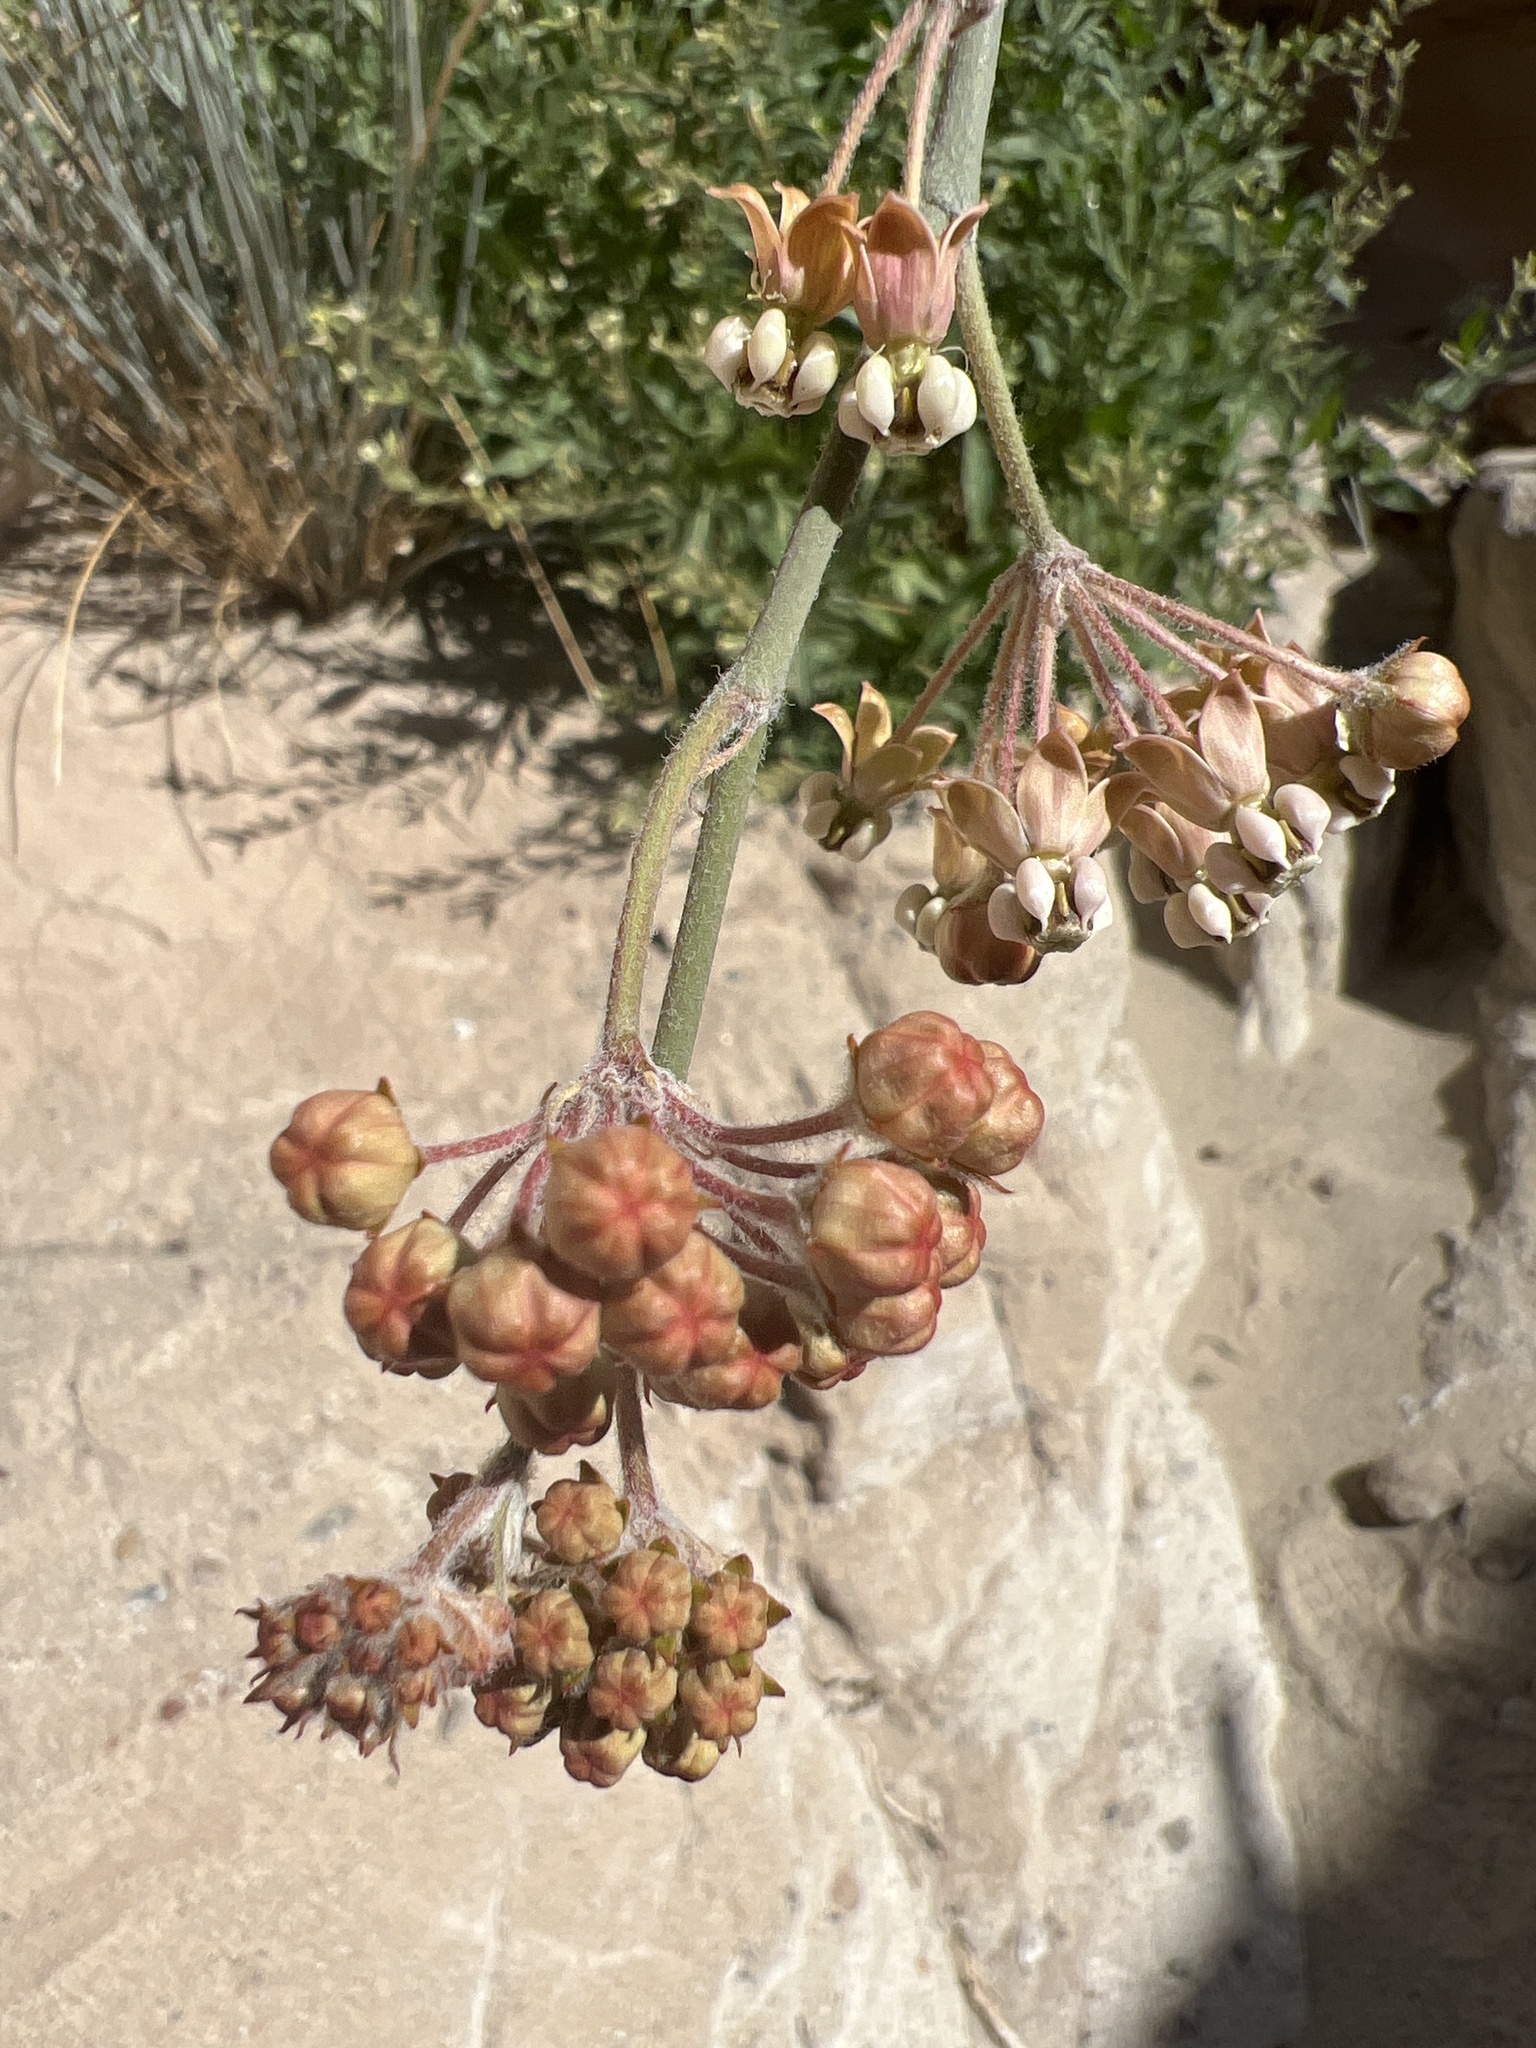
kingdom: Plantae
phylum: Tracheophyta
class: Magnoliopsida
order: Gentianales
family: Apocynaceae
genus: Asclepias
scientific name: Asclepias albicans
